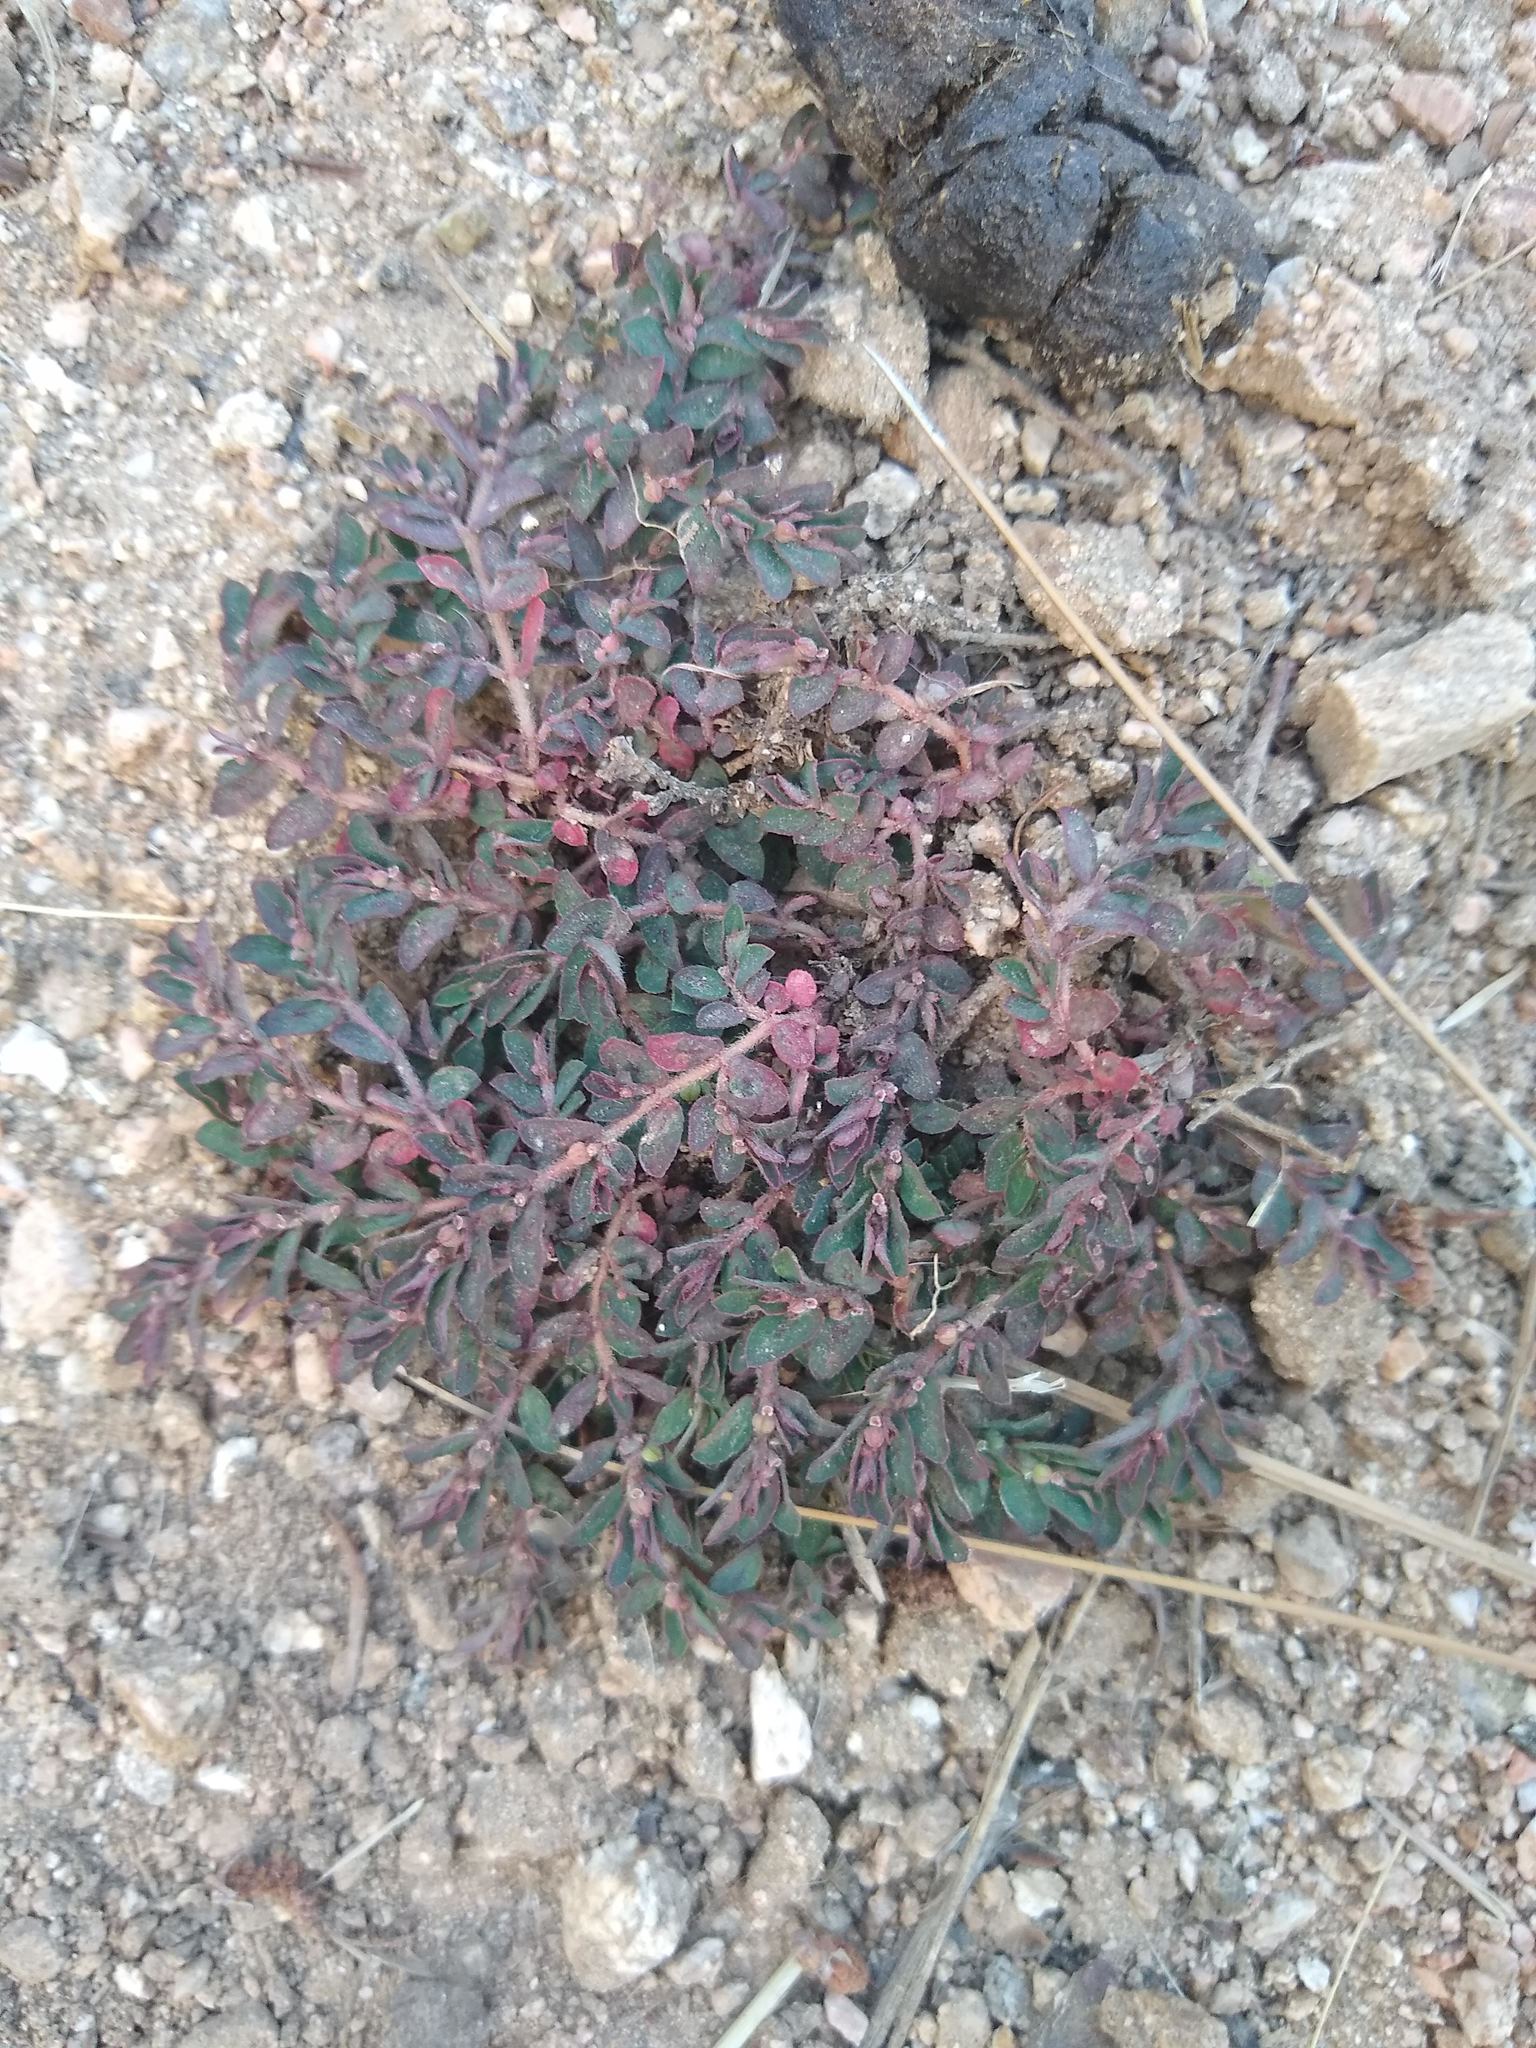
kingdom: Plantae
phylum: Tracheophyta
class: Magnoliopsida
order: Malpighiales
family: Euphorbiaceae
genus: Euphorbia
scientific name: Euphorbia maculata
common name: Spotted spurge
